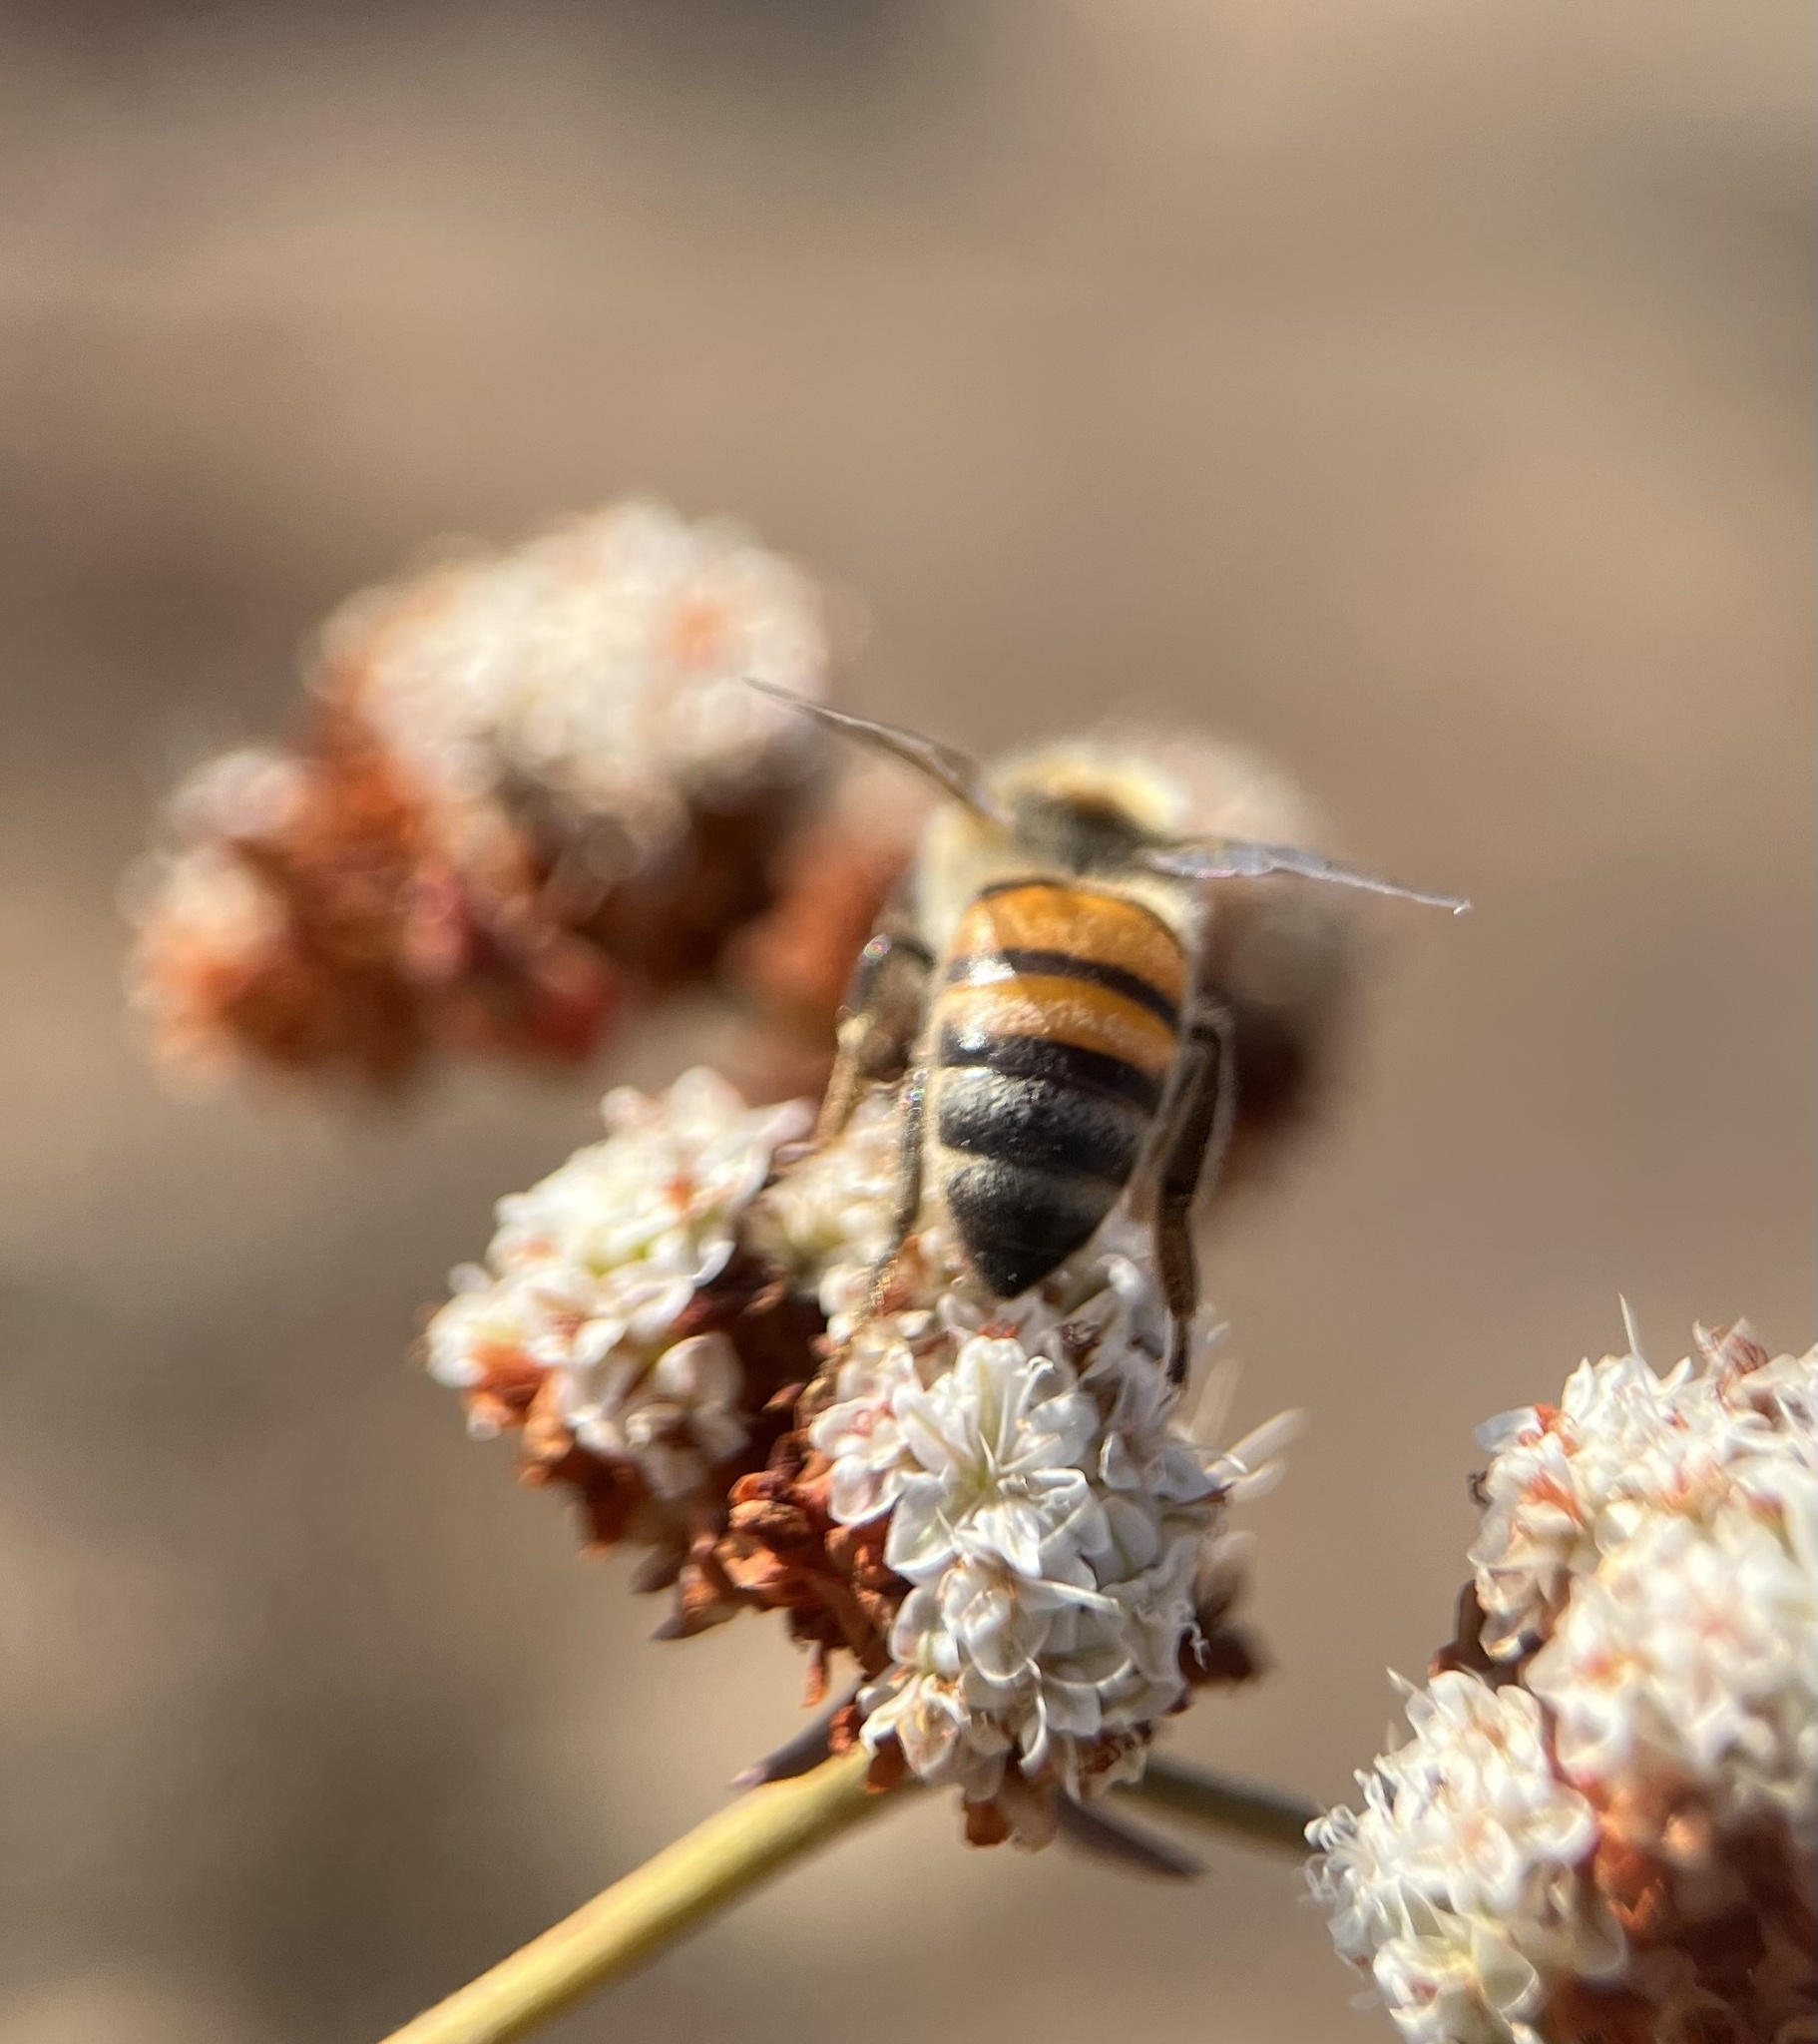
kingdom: Animalia
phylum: Arthropoda
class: Insecta
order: Hymenoptera
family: Apidae
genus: Apis
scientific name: Apis mellifera
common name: Honey bee
